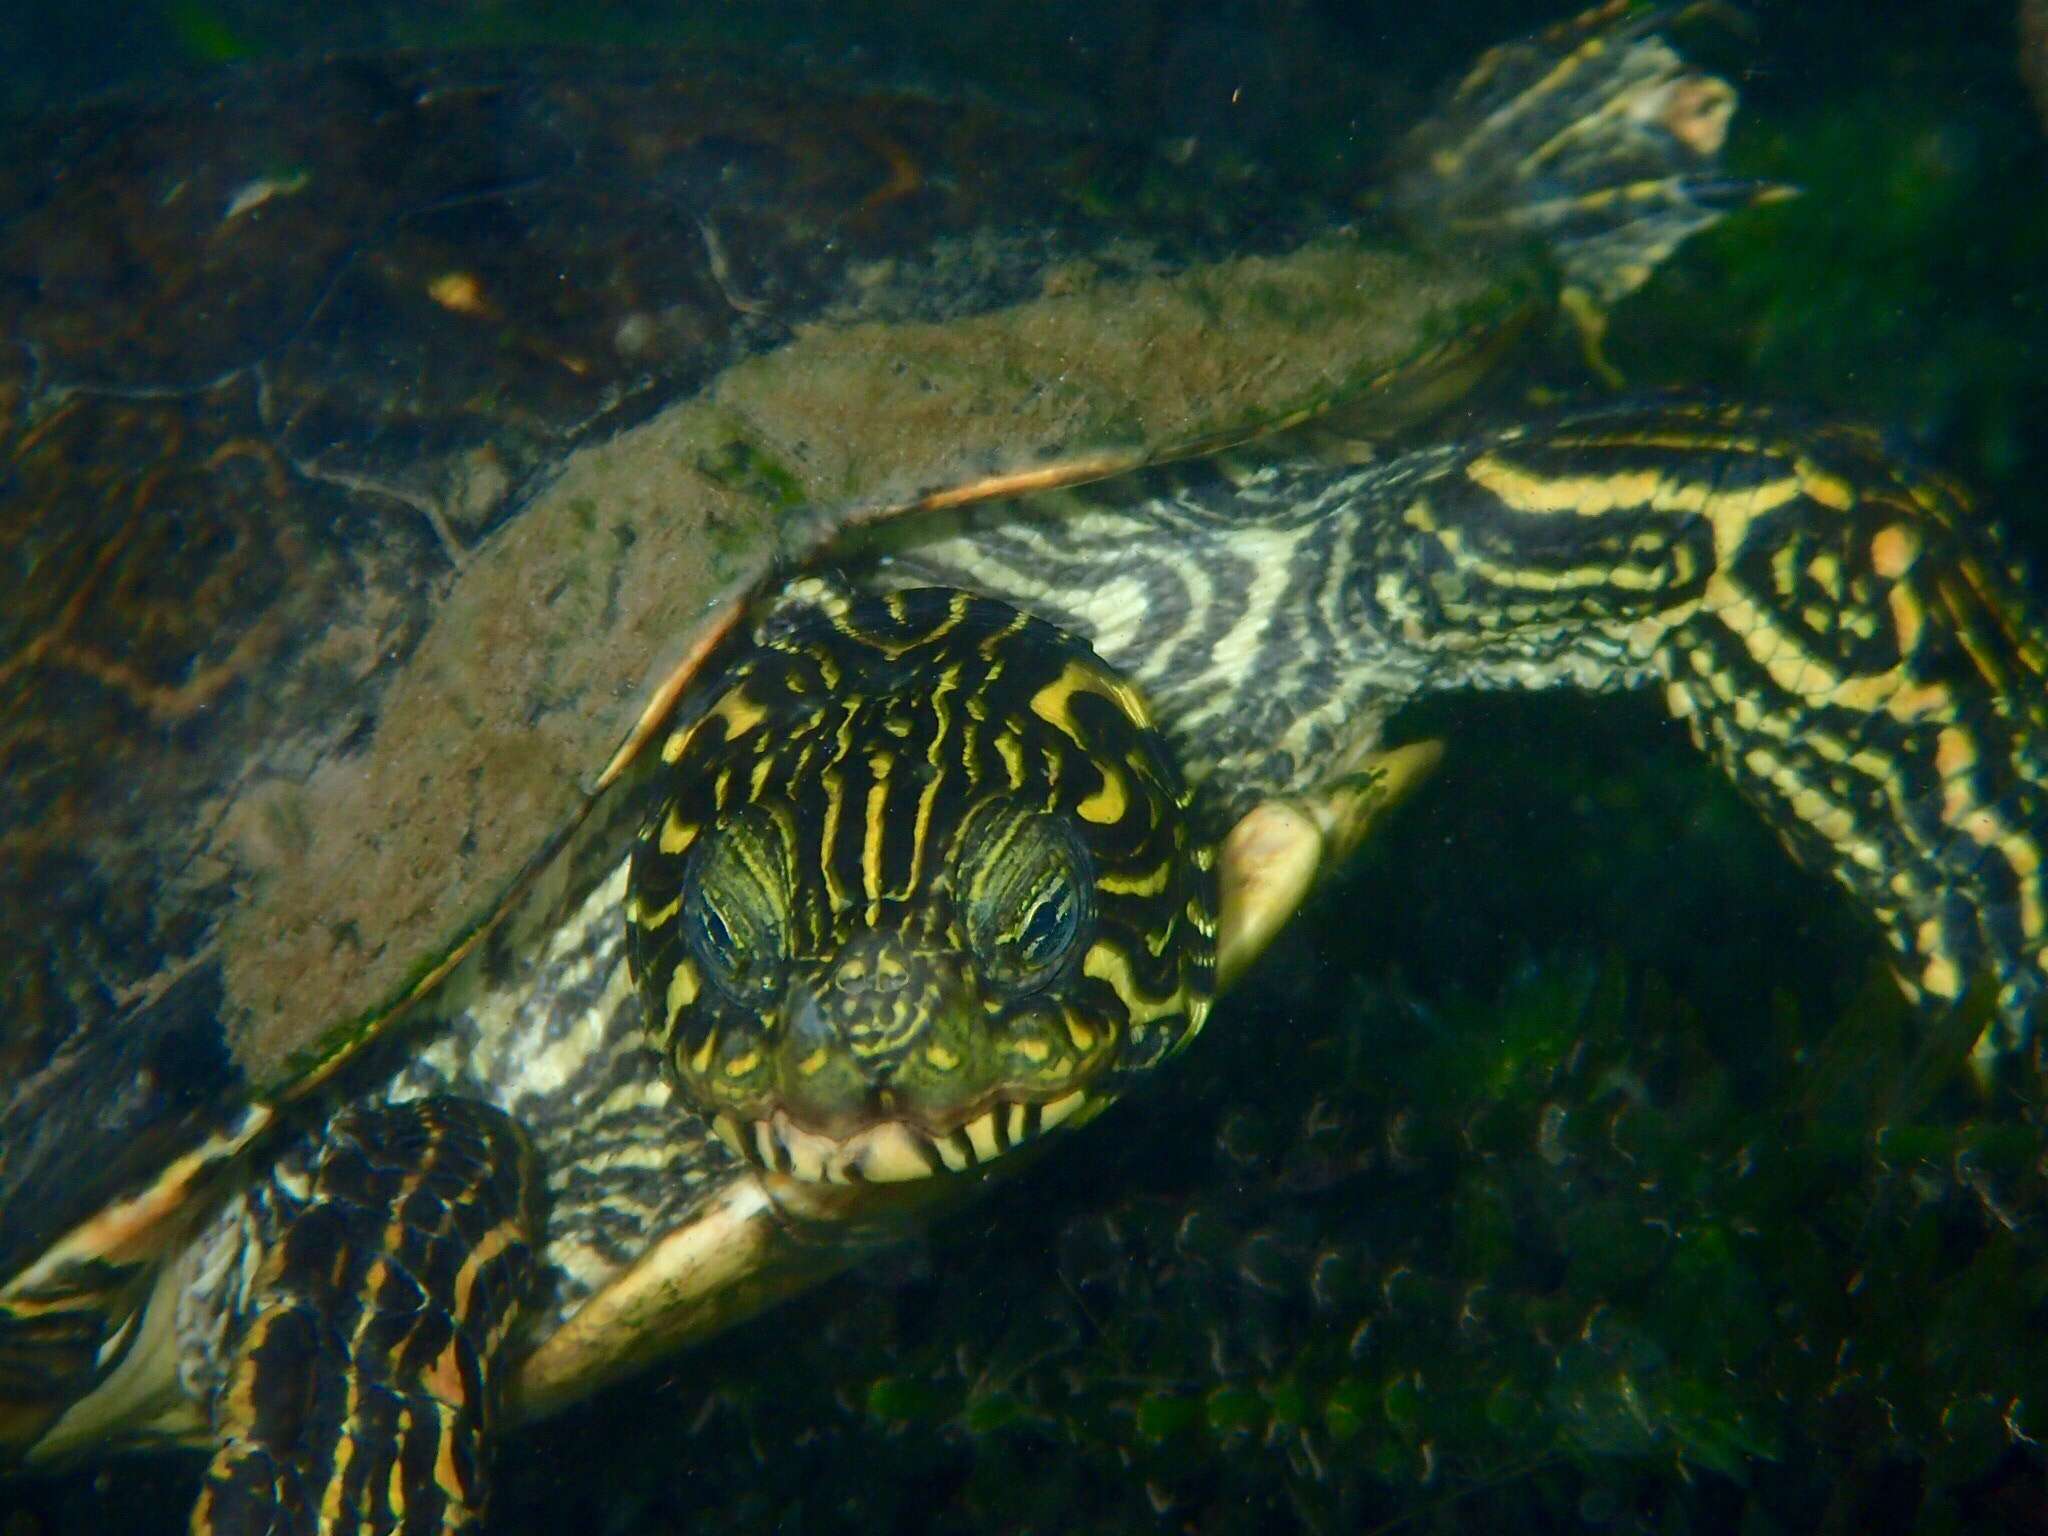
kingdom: Animalia
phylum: Chordata
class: Testudines
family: Emydidae
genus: Pseudemys
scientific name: Pseudemys texana
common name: Texas river cooter
